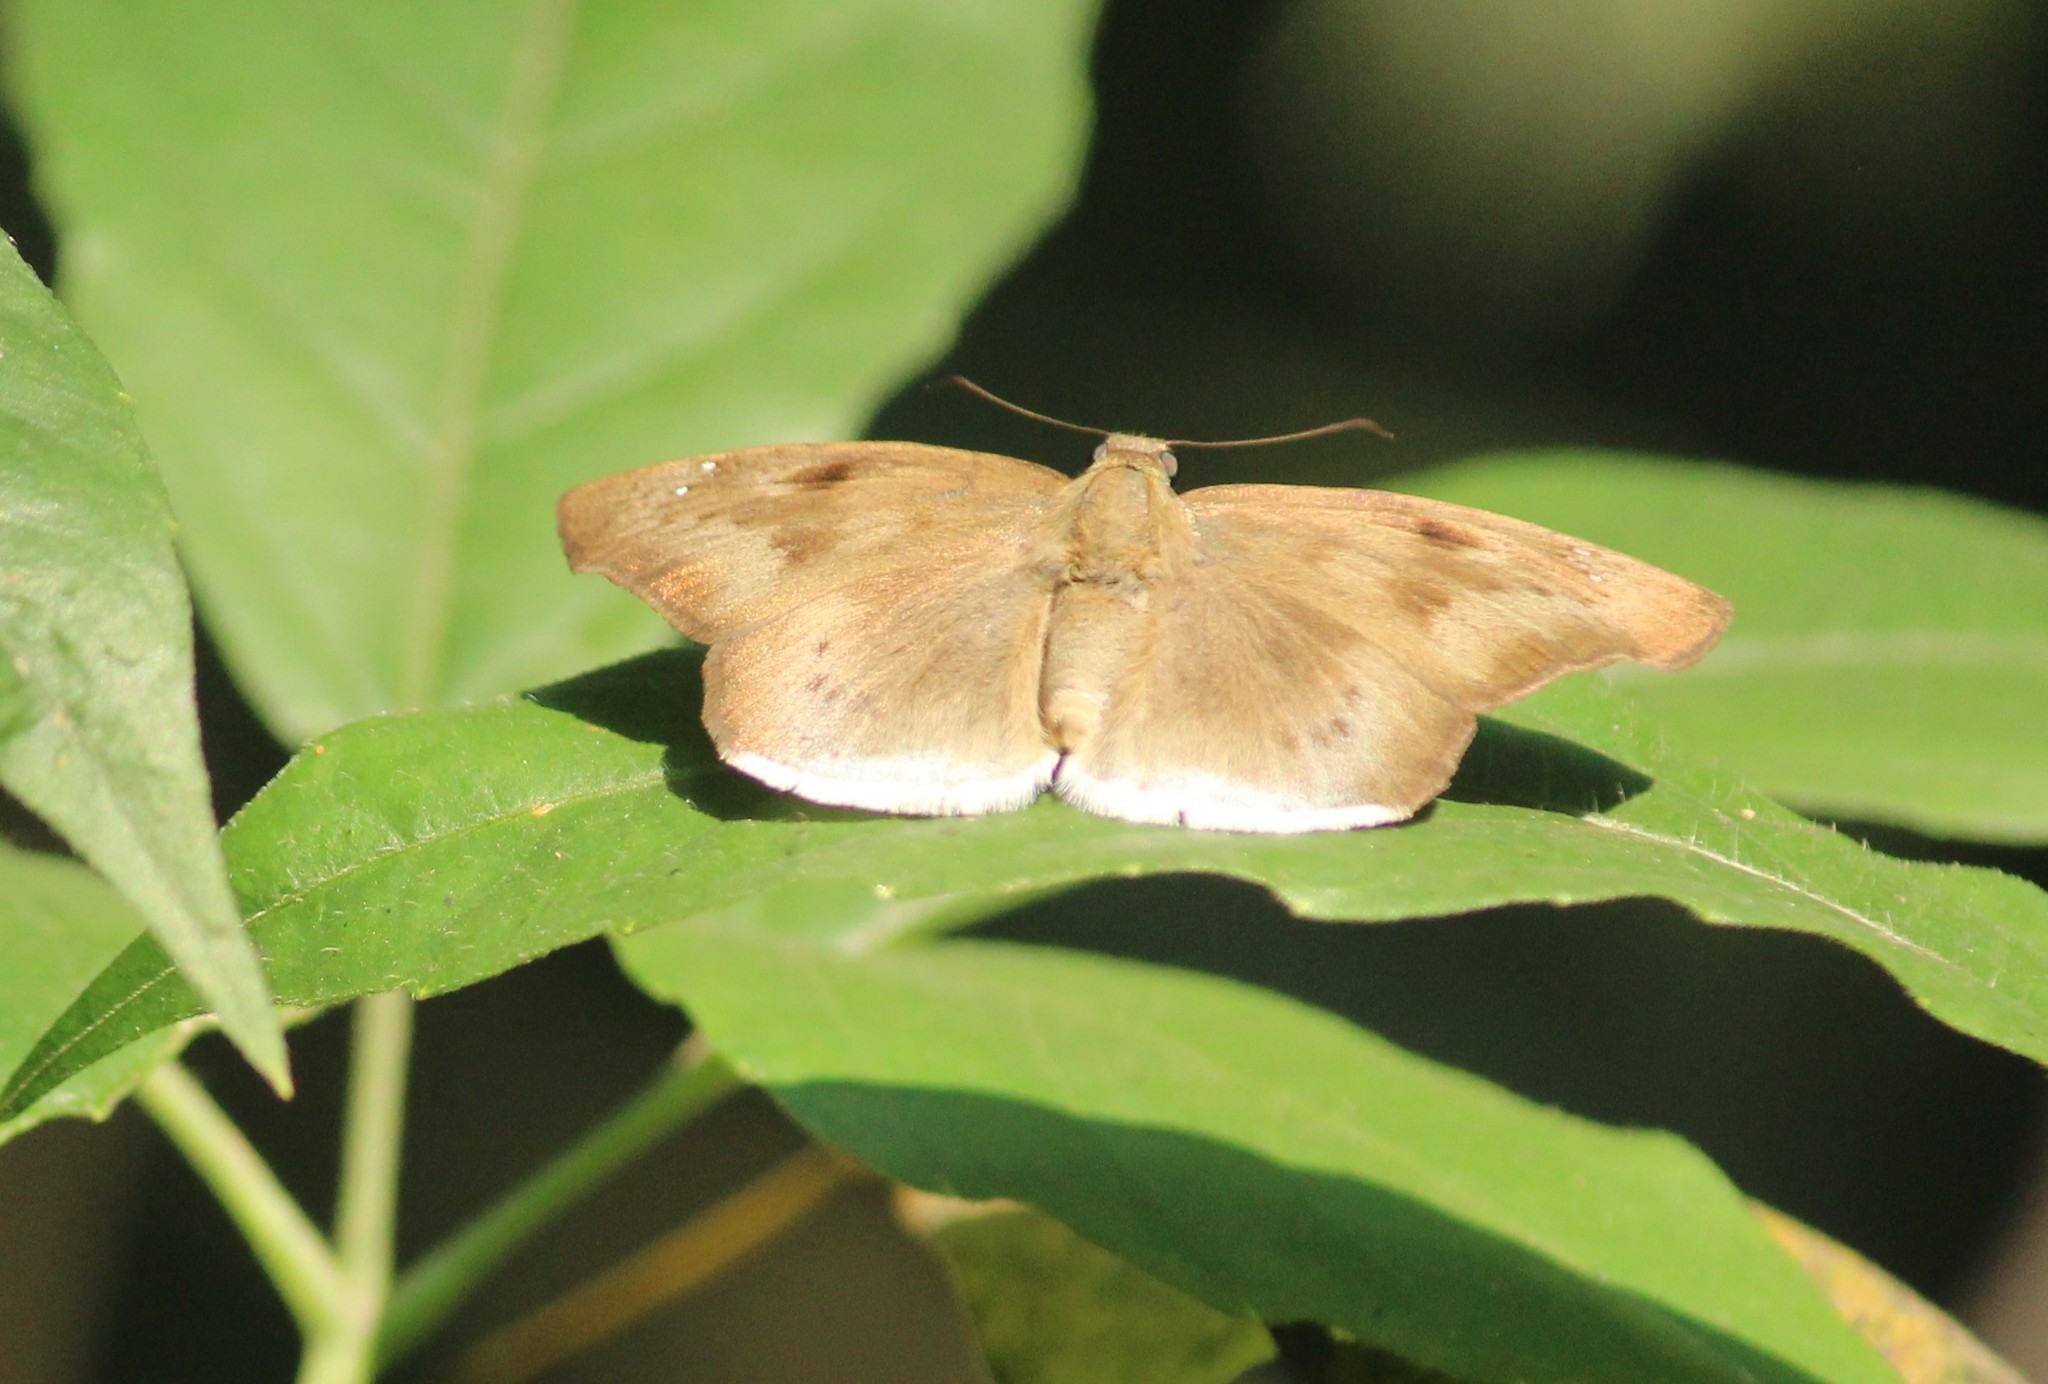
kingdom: Animalia
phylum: Arthropoda
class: Insecta
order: Lepidoptera
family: Hesperiidae
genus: Tagiades
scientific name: Tagiades gana
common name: Suffused snow flat
